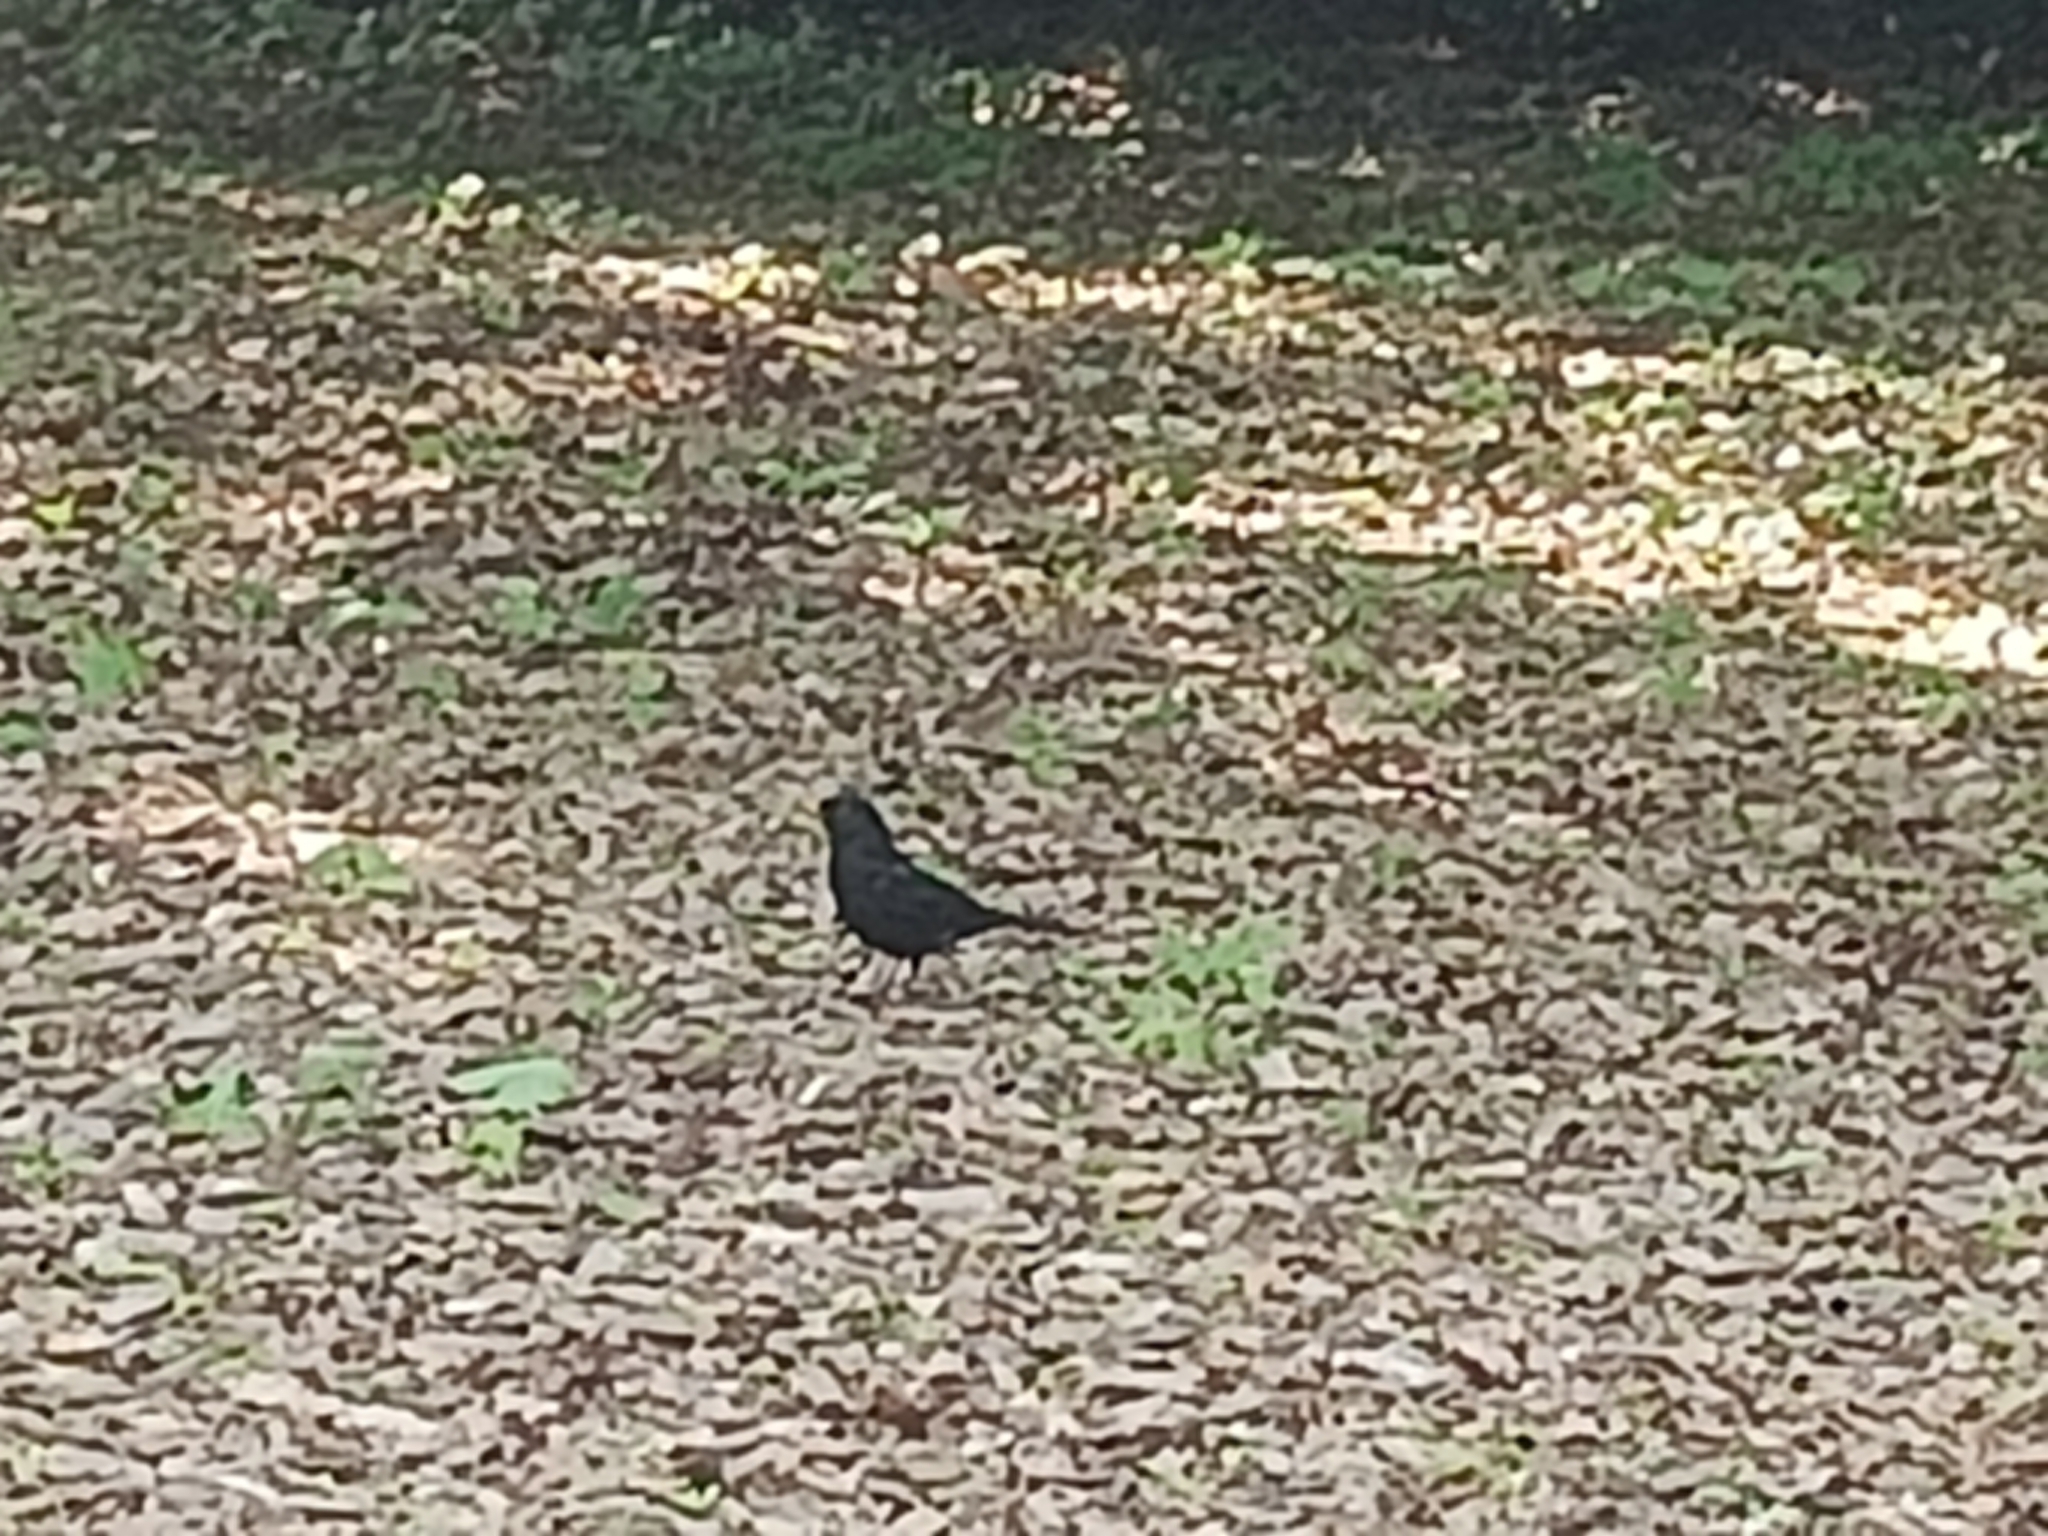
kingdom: Animalia
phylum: Chordata
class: Aves
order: Passeriformes
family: Turdidae
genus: Turdus
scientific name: Turdus merula
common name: Common blackbird
